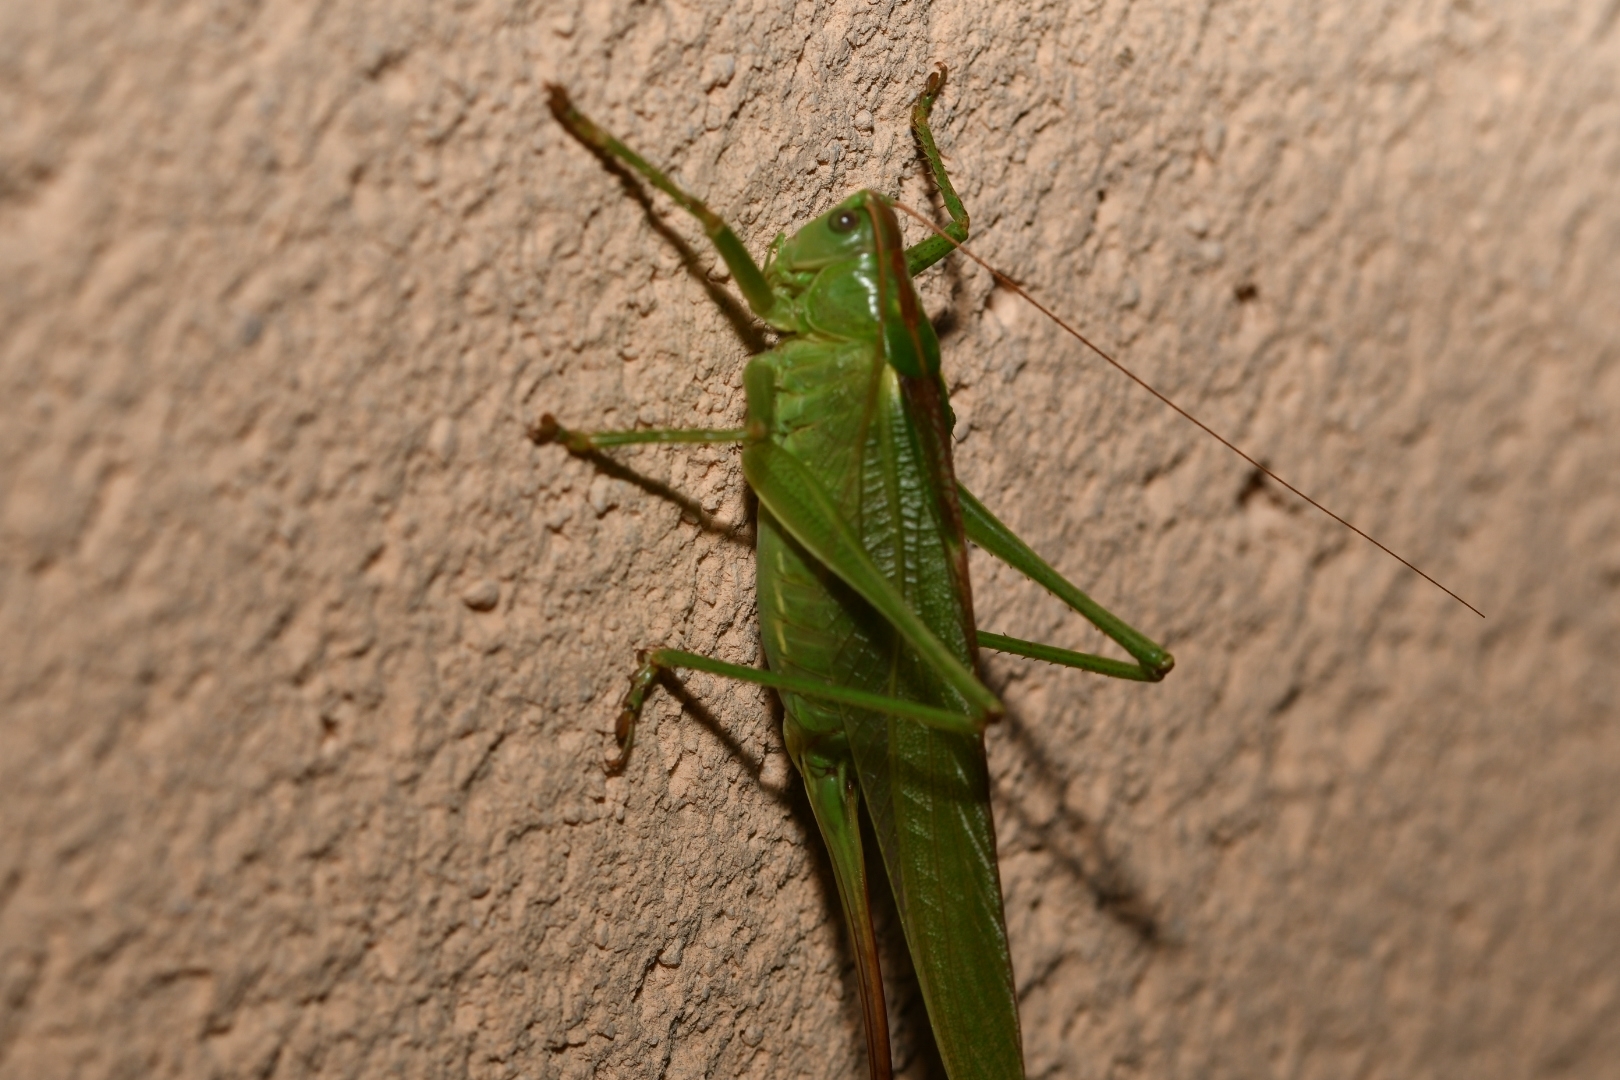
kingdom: Animalia
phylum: Arthropoda
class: Insecta
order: Orthoptera
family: Tettigoniidae
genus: Tettigonia
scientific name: Tettigonia viridissima
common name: Great green bush-cricket
